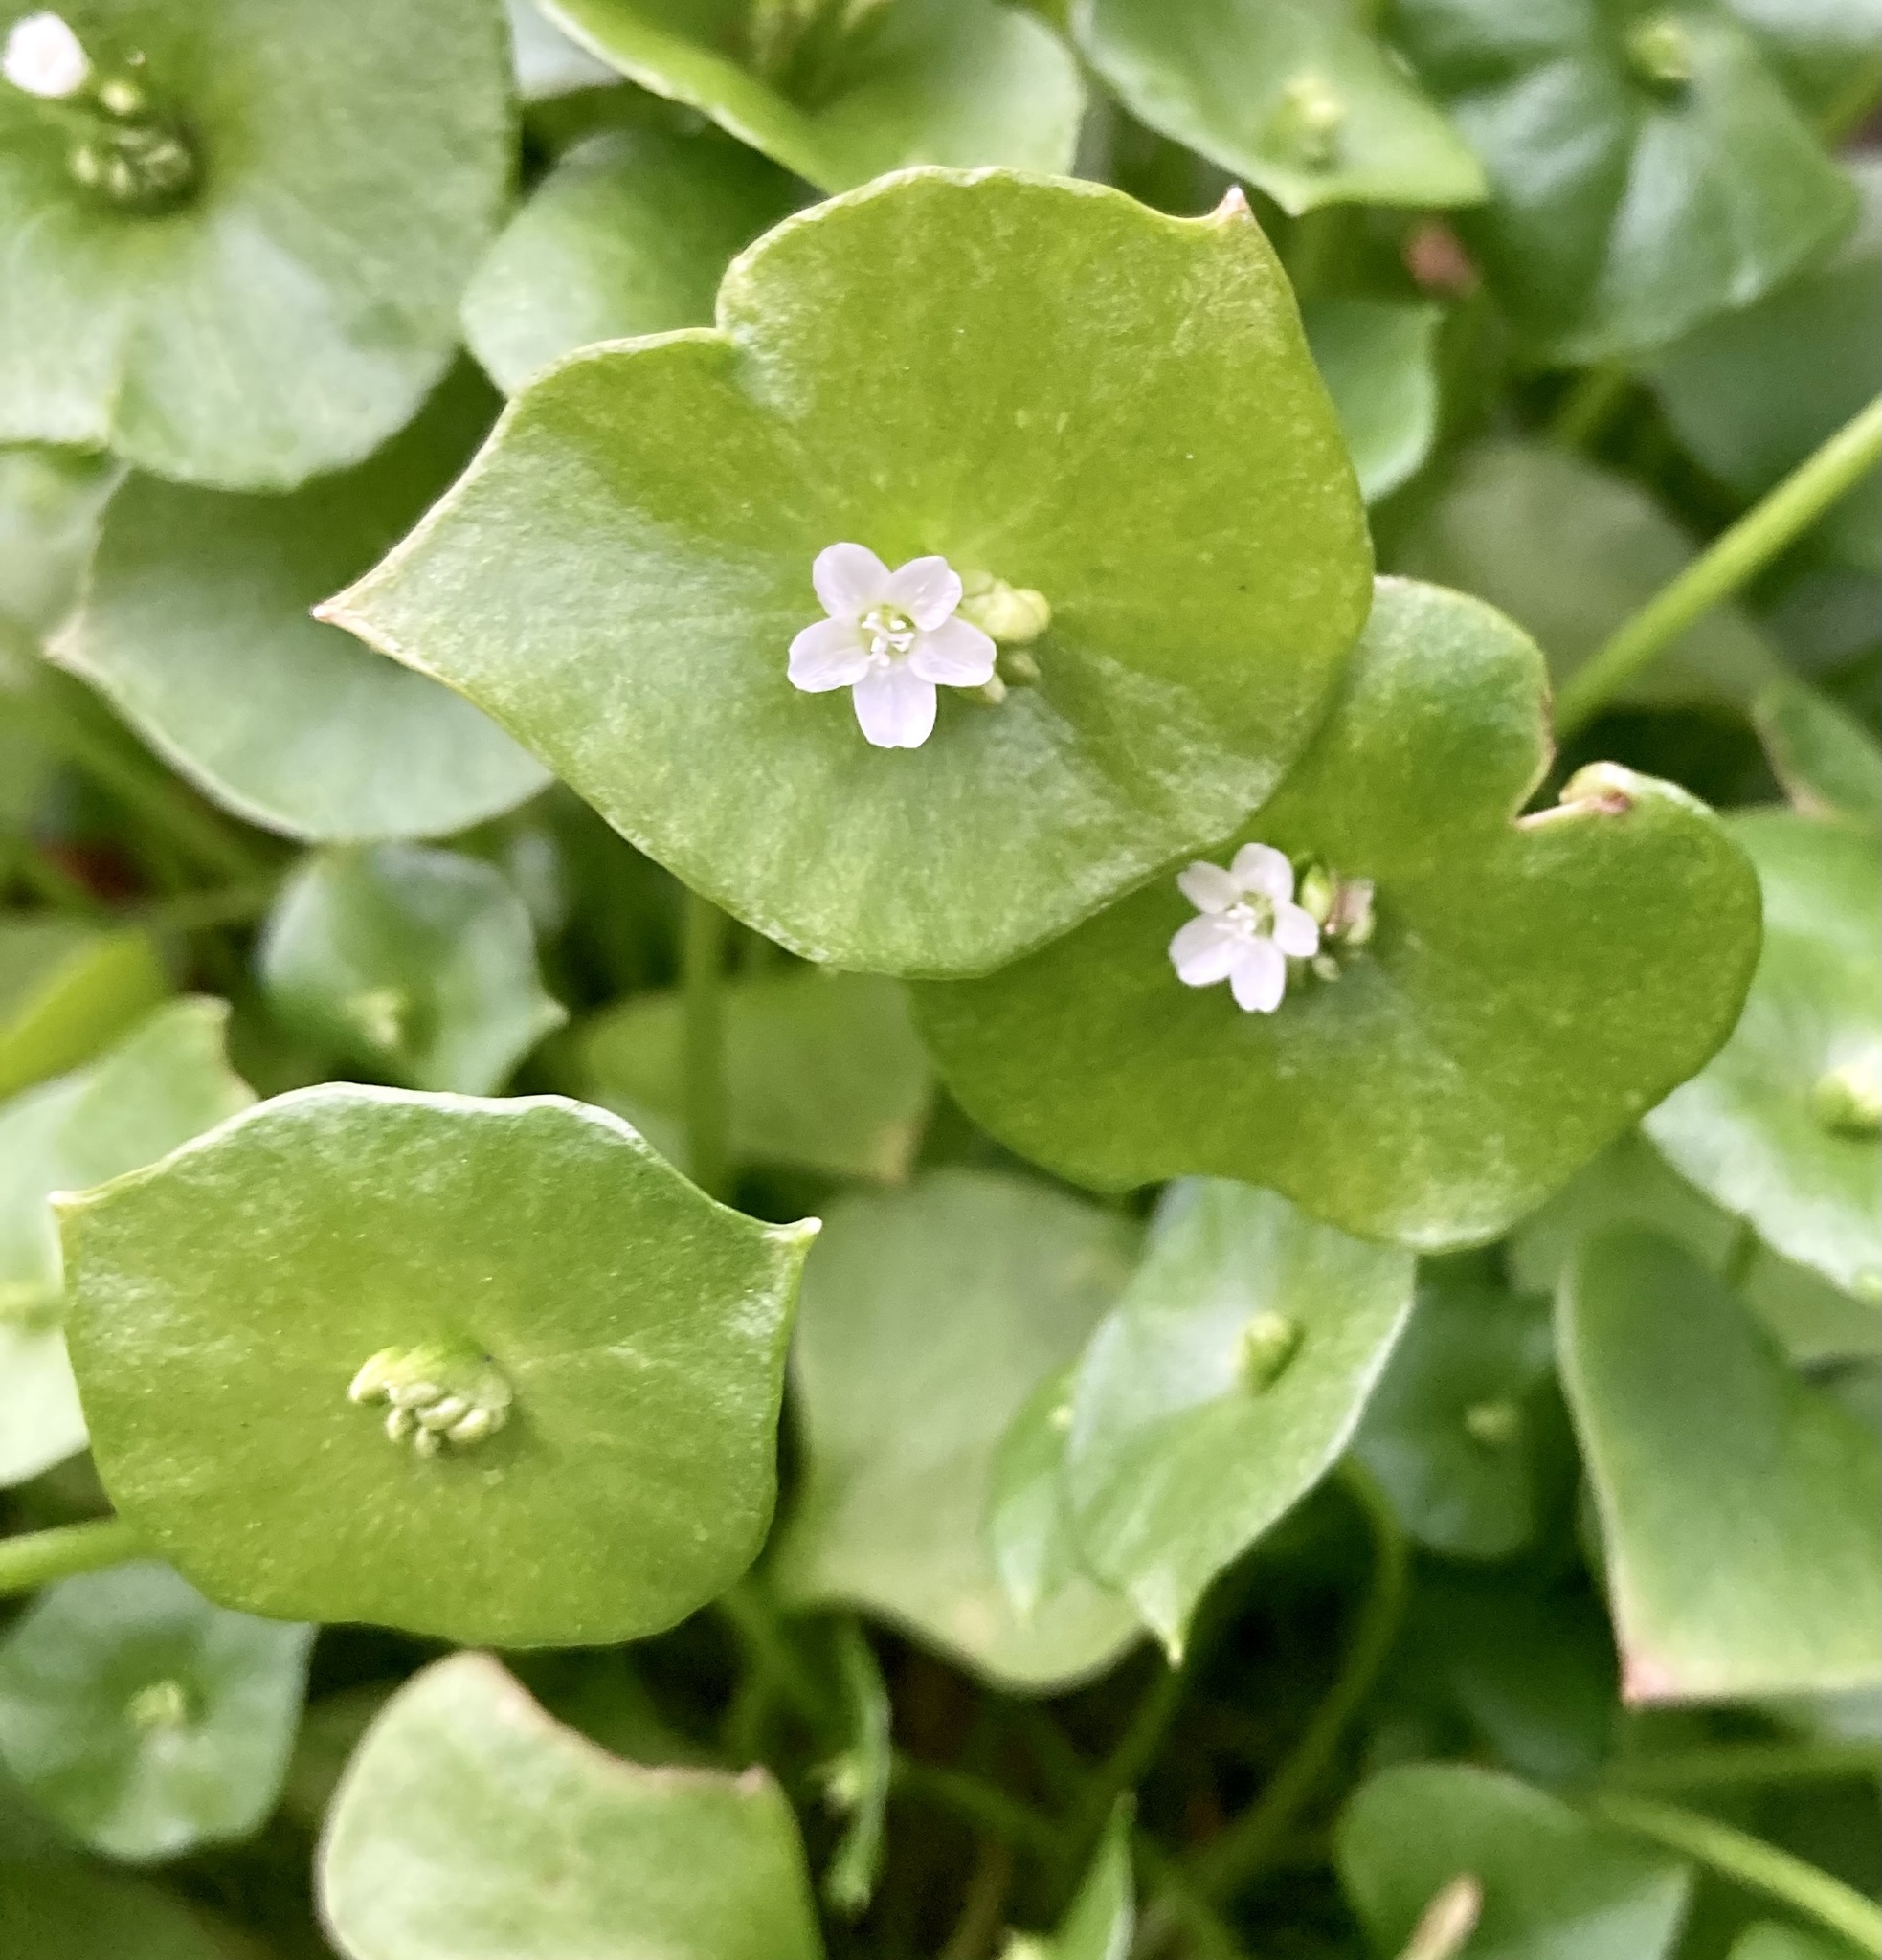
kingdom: Plantae
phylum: Tracheophyta
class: Magnoliopsida
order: Caryophyllales
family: Montiaceae
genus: Claytonia
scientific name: Claytonia perfoliata
